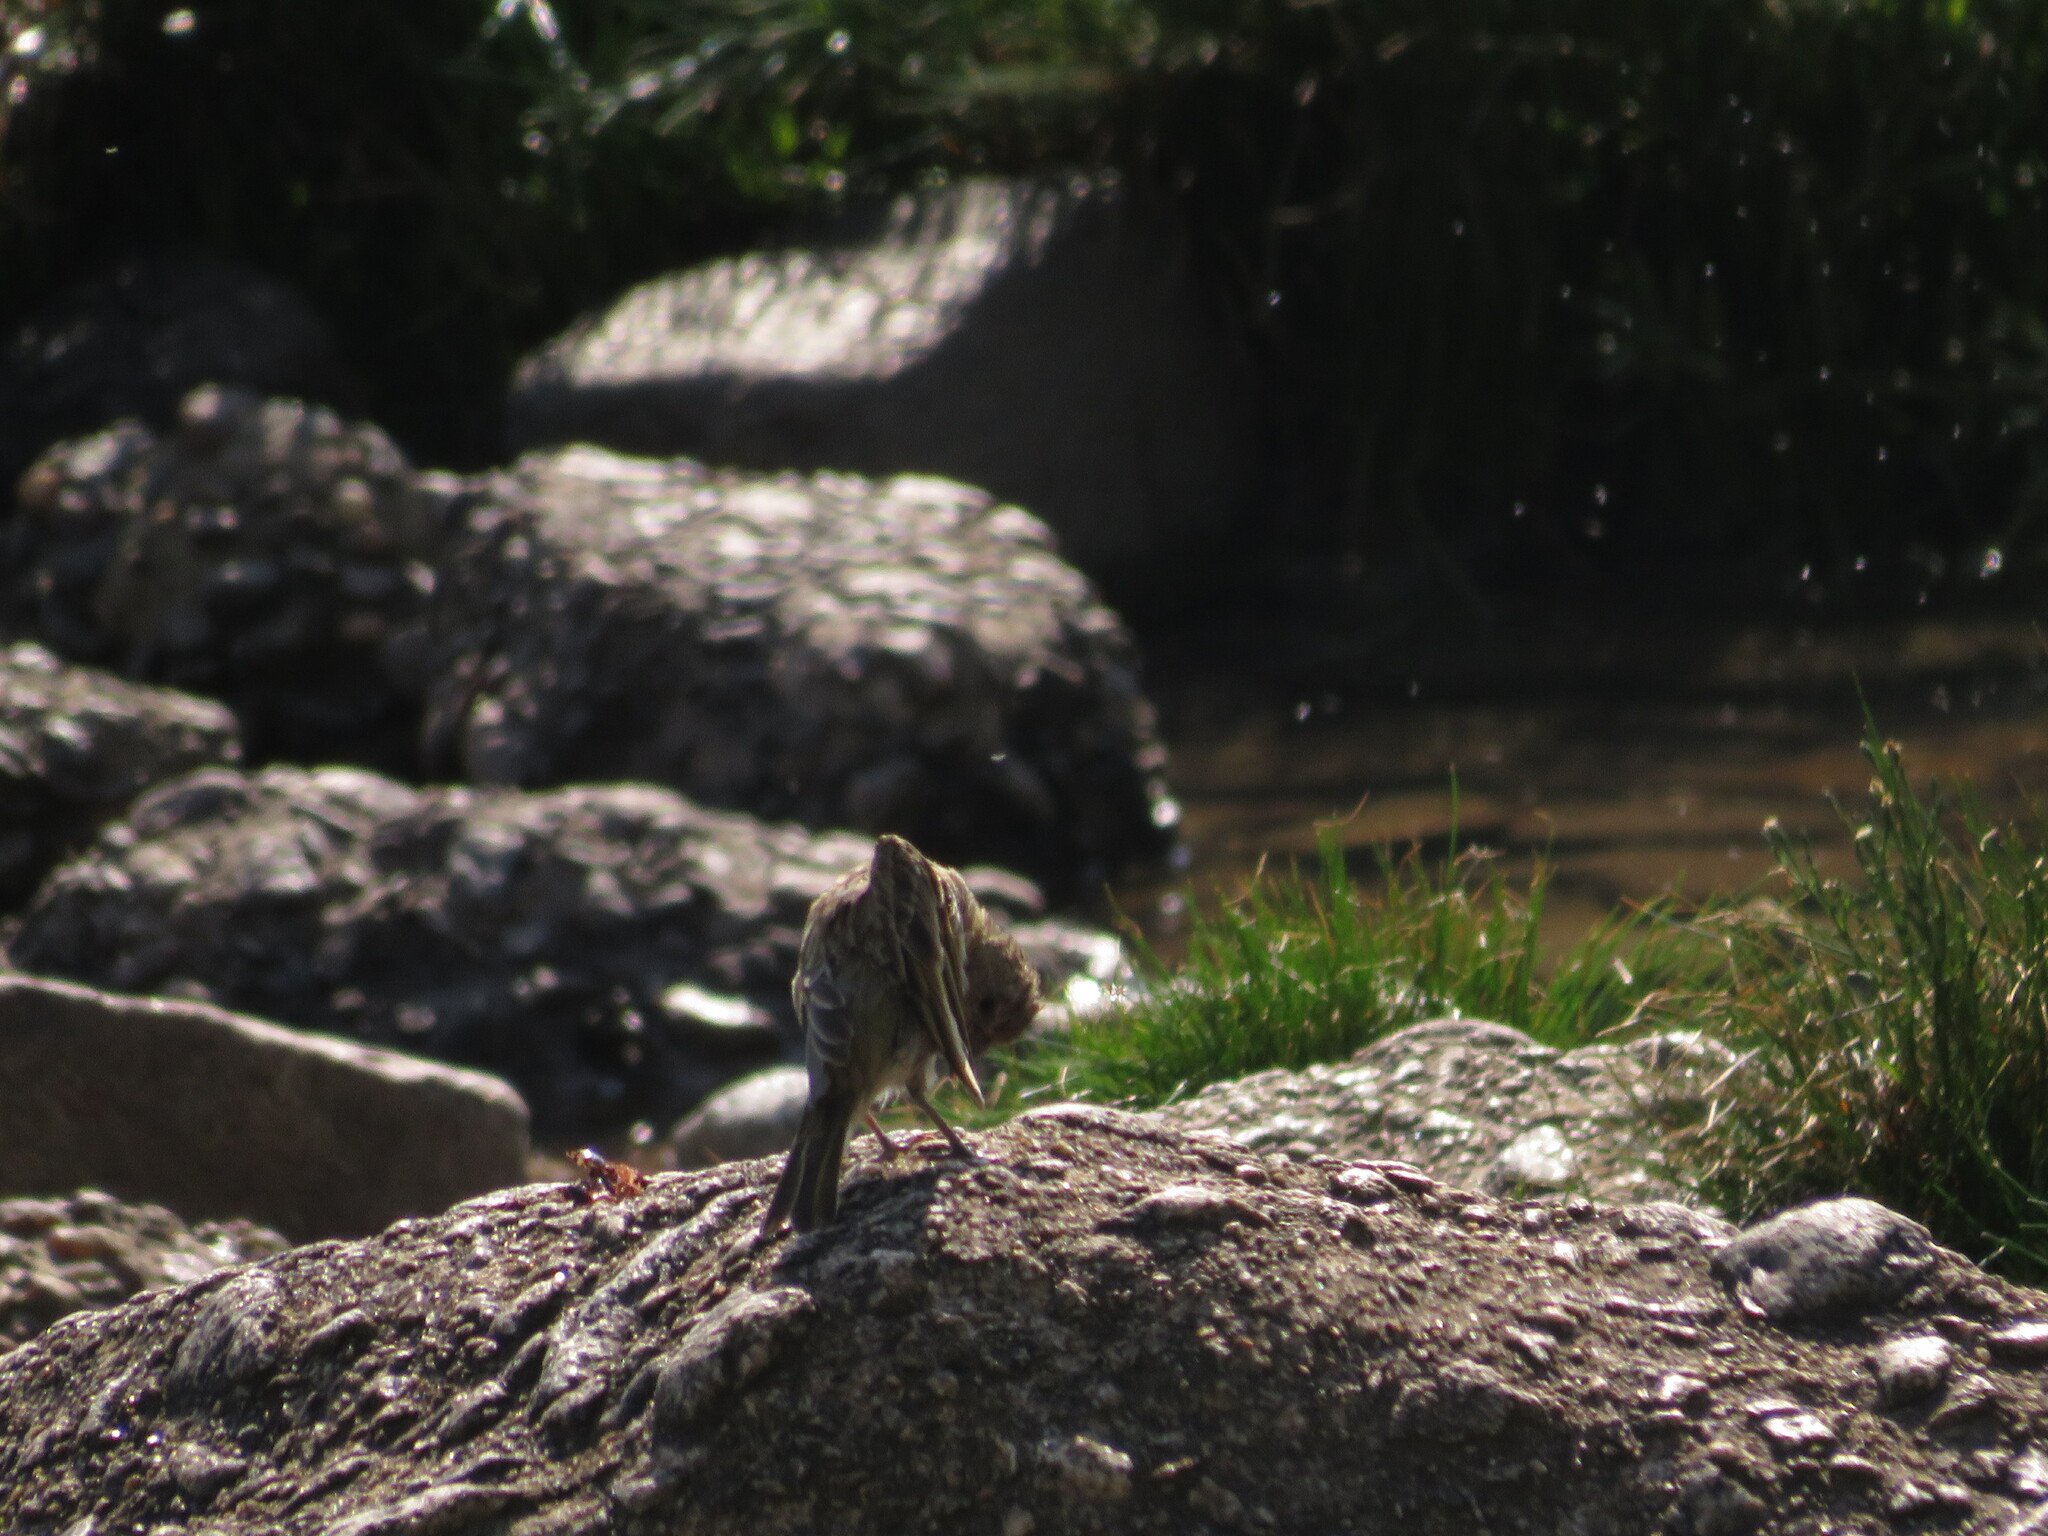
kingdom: Animalia
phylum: Chordata
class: Aves
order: Passeriformes
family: Thraupidae
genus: Sicalis
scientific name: Sicalis flaveola
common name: Saffron finch
